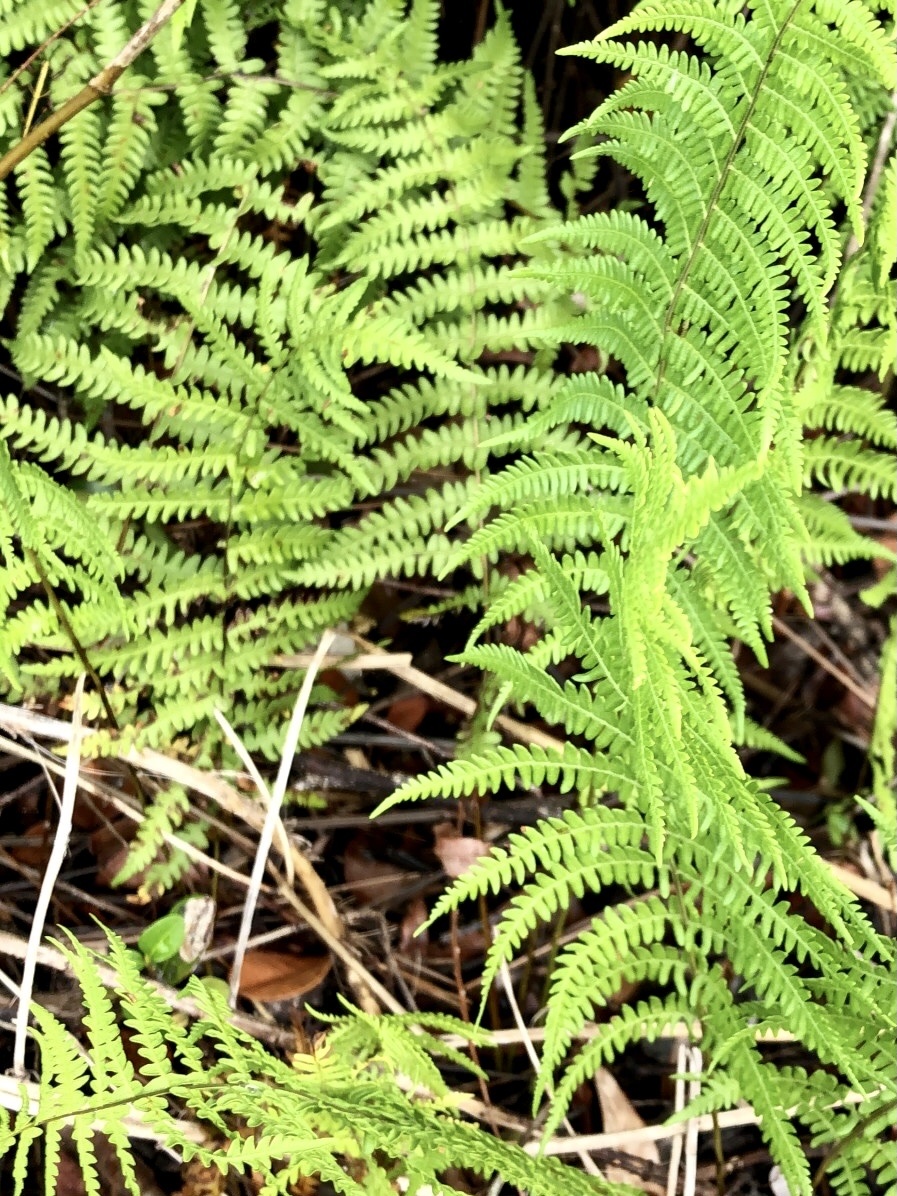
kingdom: Plantae
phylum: Tracheophyta
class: Polypodiopsida
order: Polypodiales
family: Thelypteridaceae
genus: Thelypteris
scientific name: Thelypteris palustris
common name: Marsh fern
